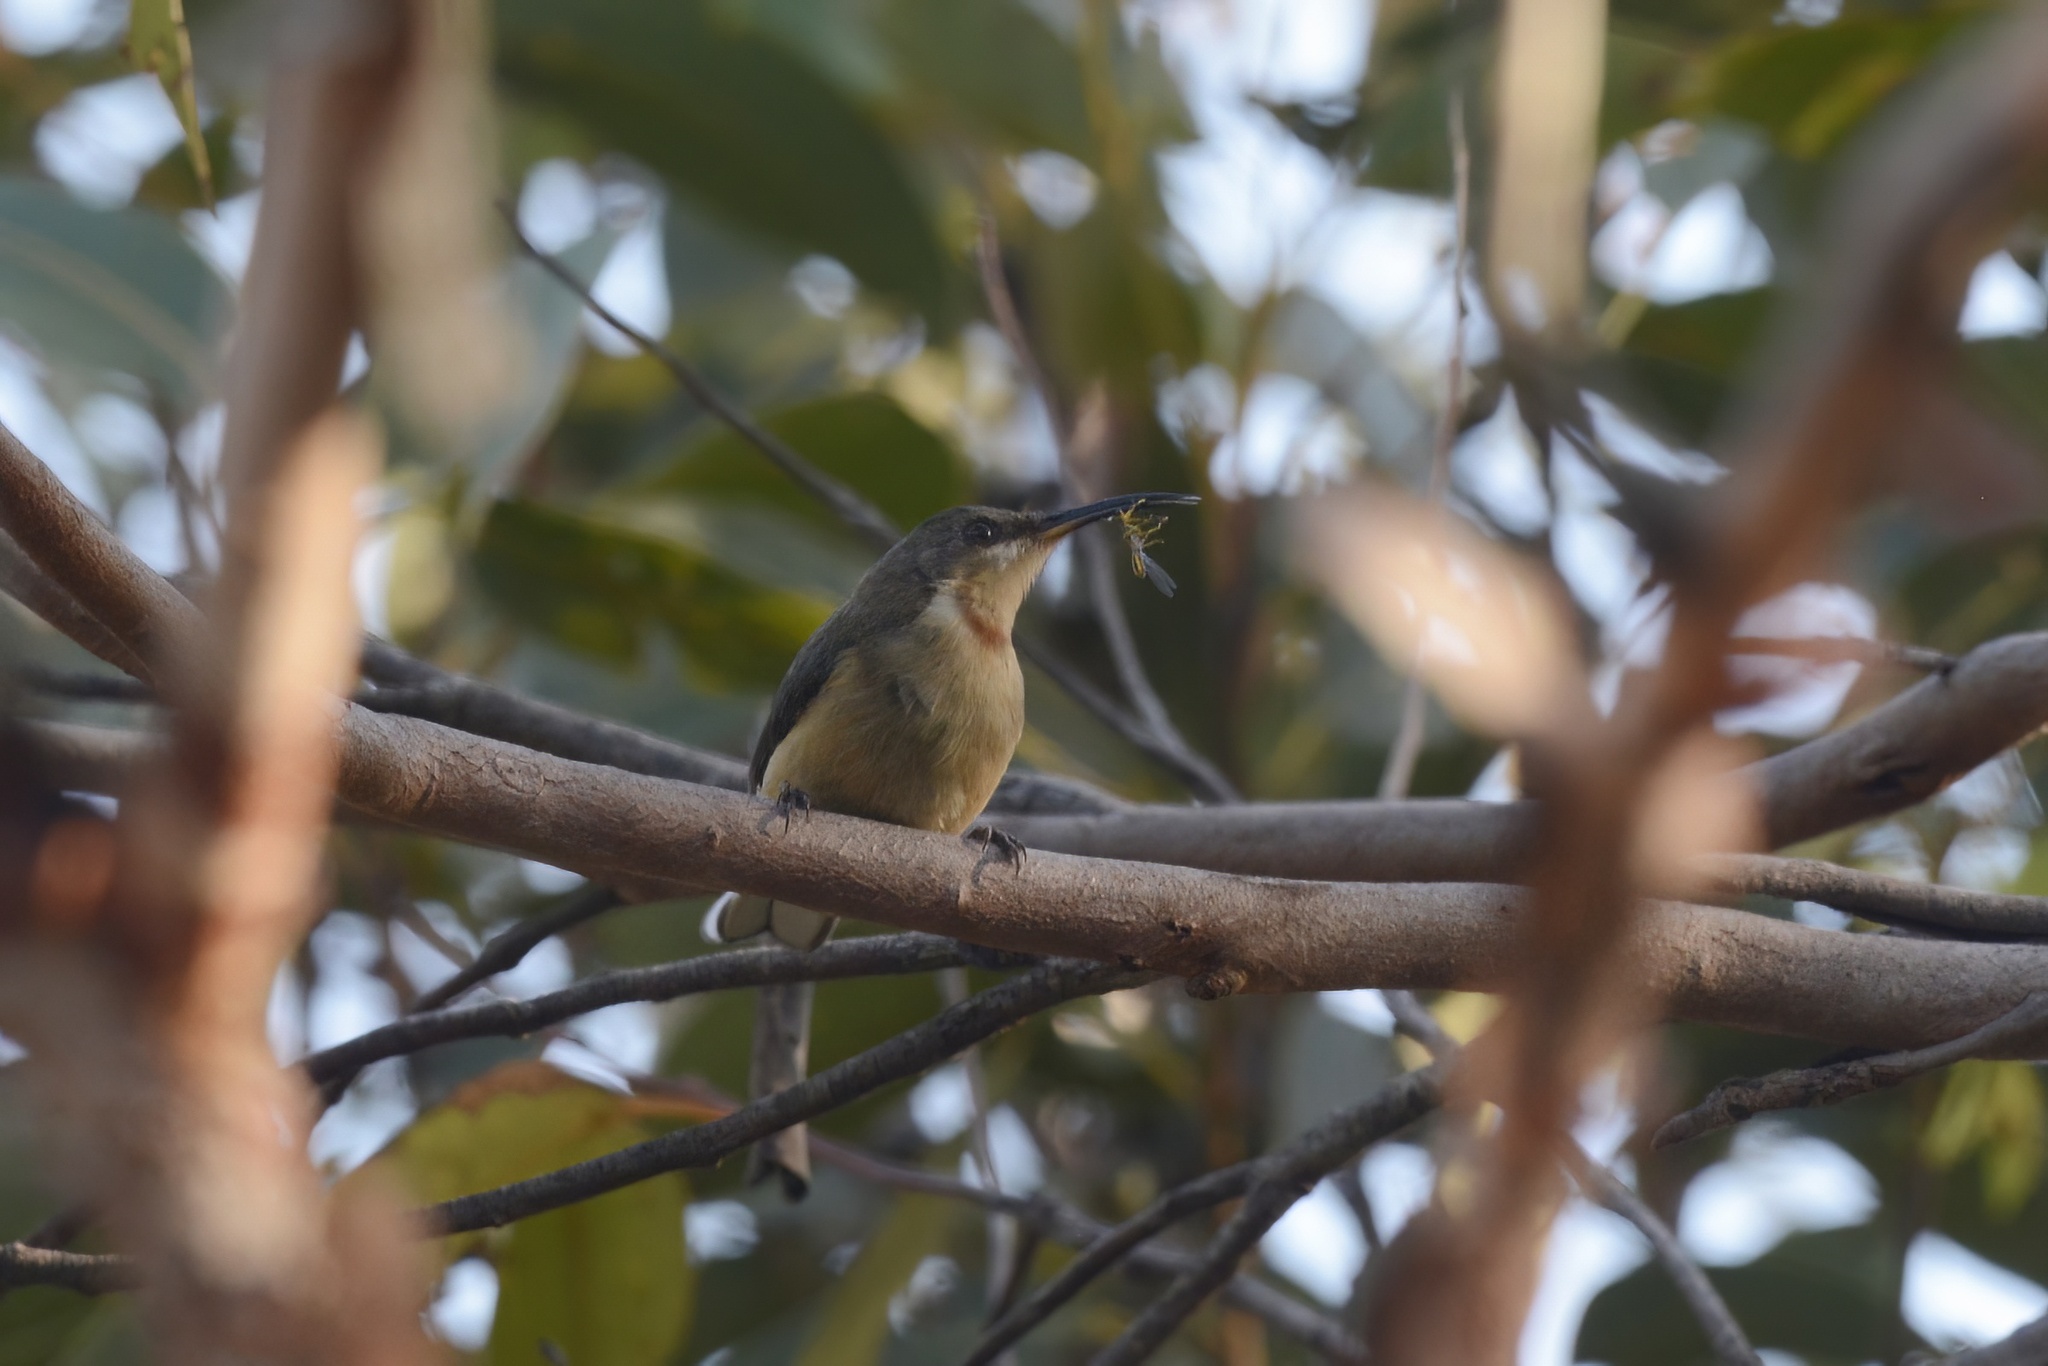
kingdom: Animalia
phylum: Chordata
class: Aves
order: Passeriformes
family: Meliphagidae
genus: Acanthorhynchus
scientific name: Acanthorhynchus tenuirostris
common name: Eastern spinebill
